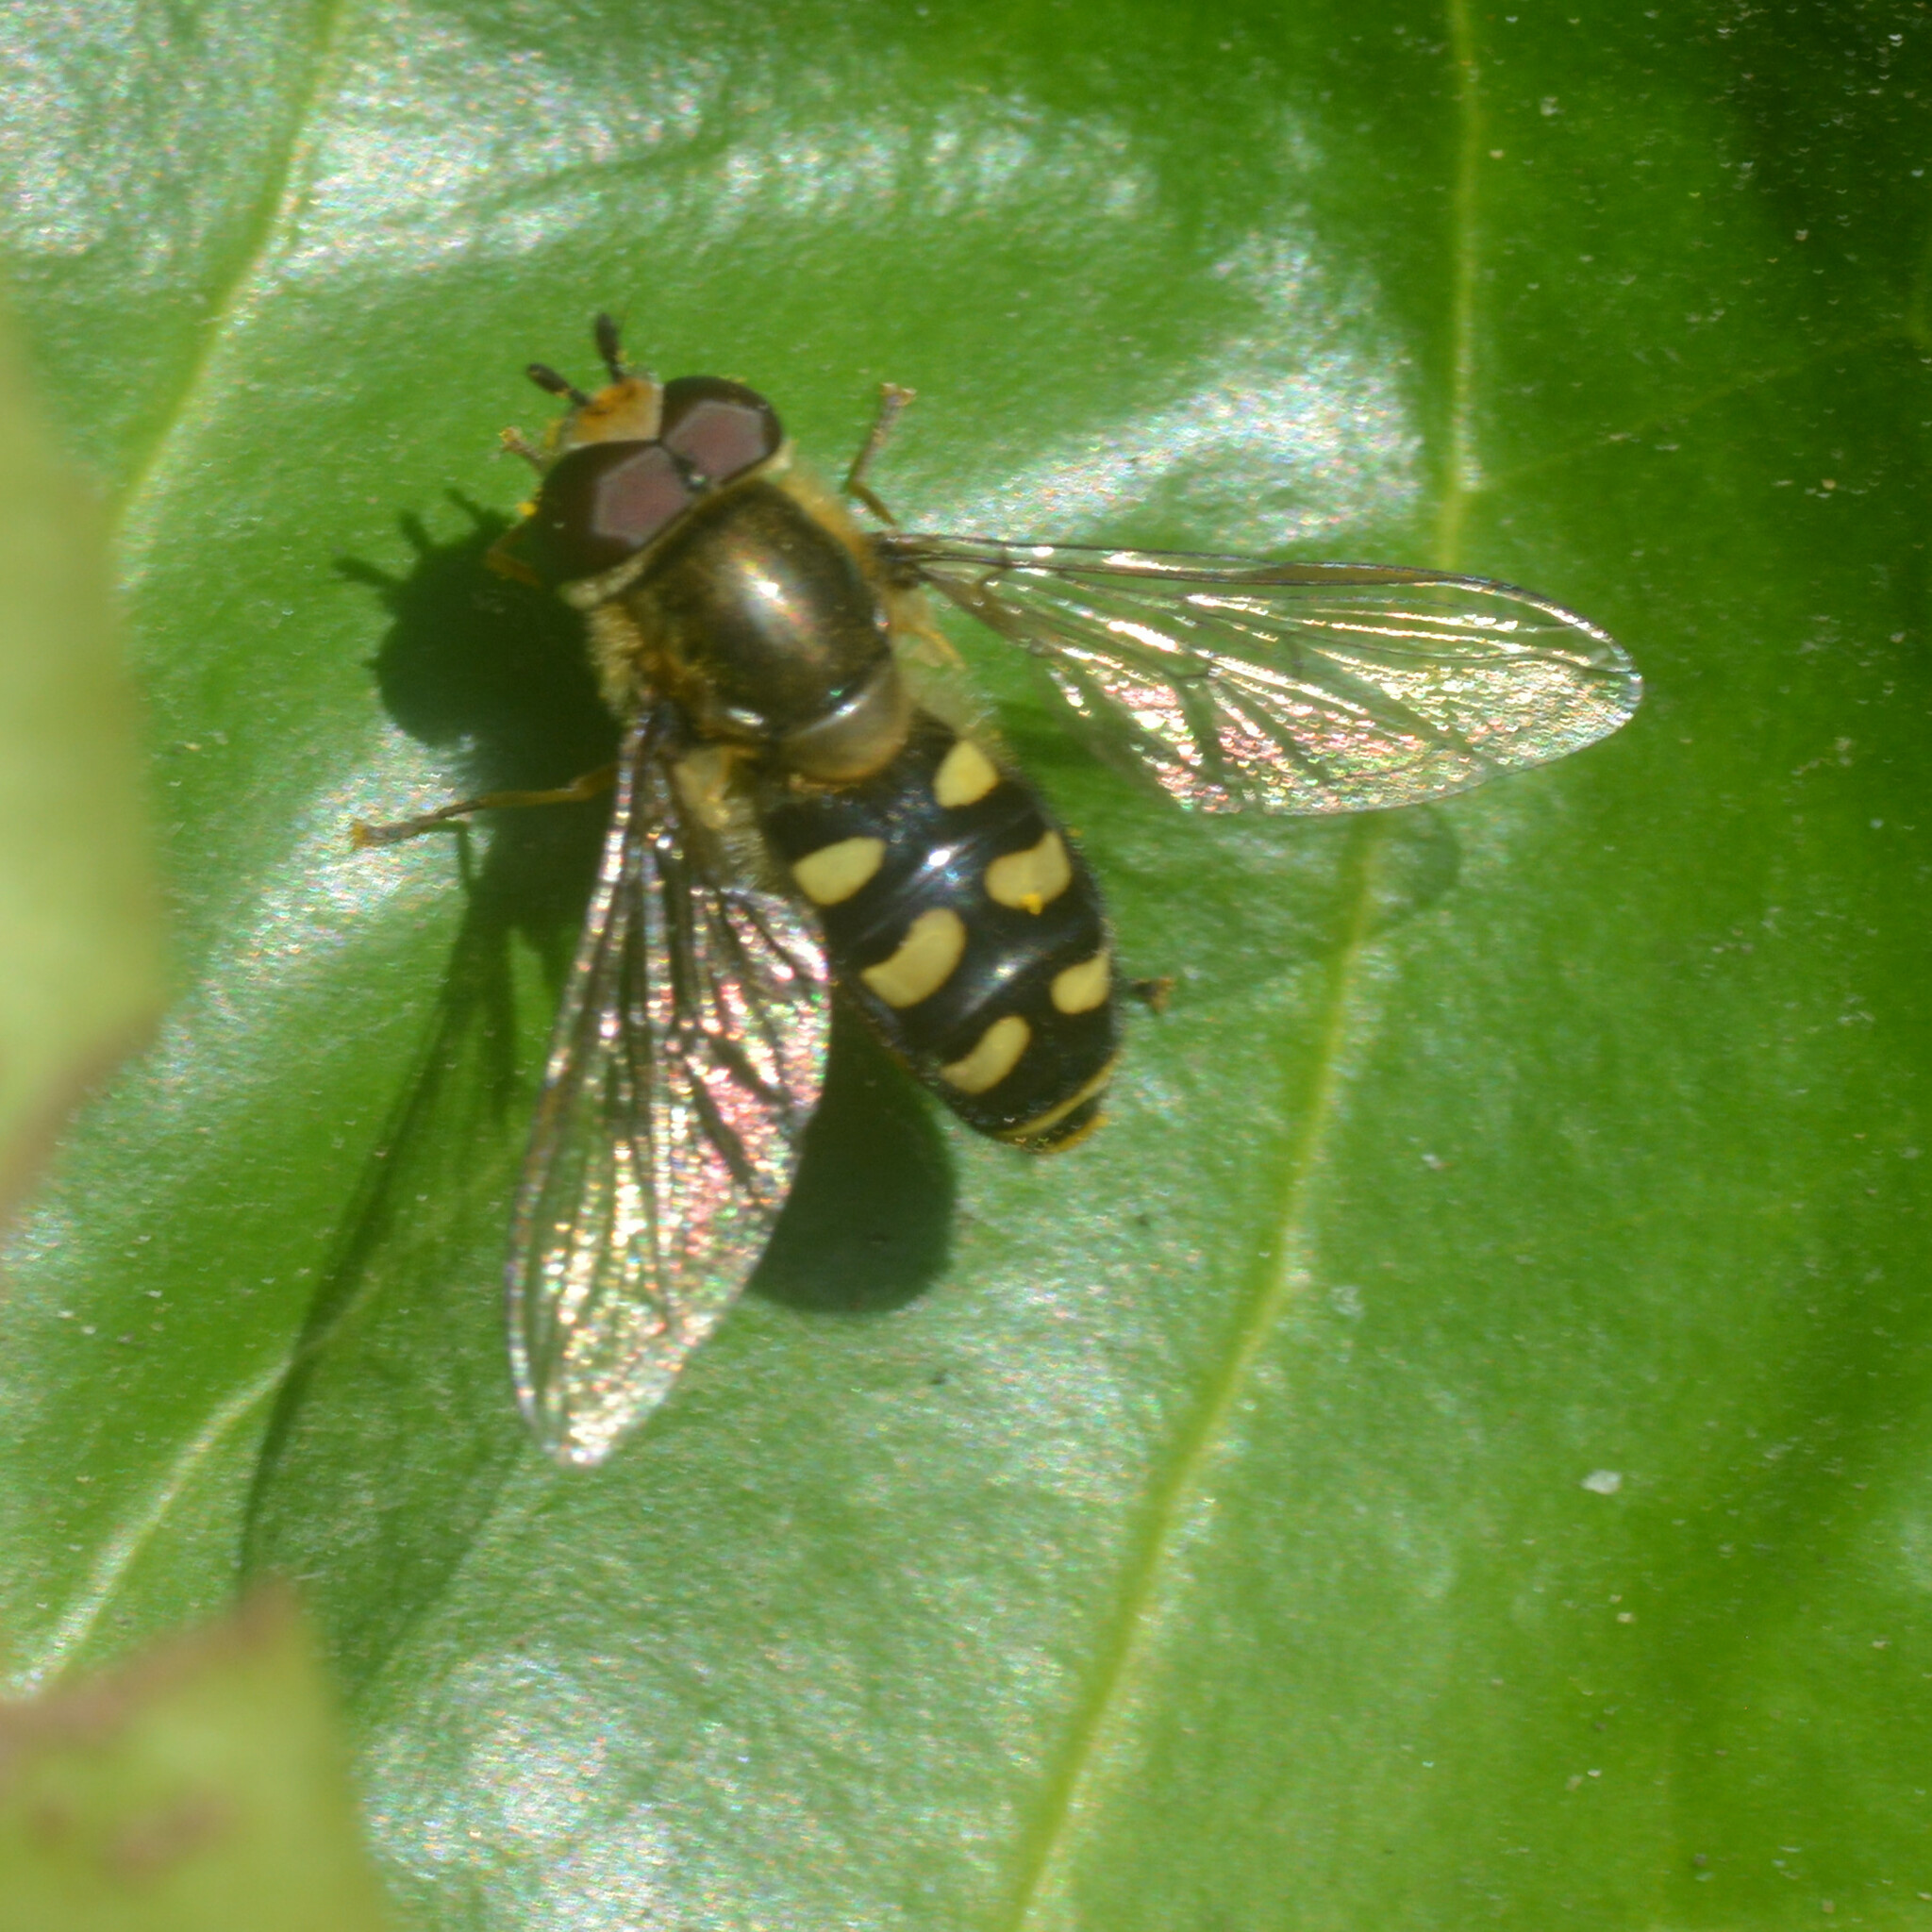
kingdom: Animalia
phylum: Arthropoda
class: Insecta
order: Diptera
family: Syrphidae
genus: Eupeodes
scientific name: Eupeodes
